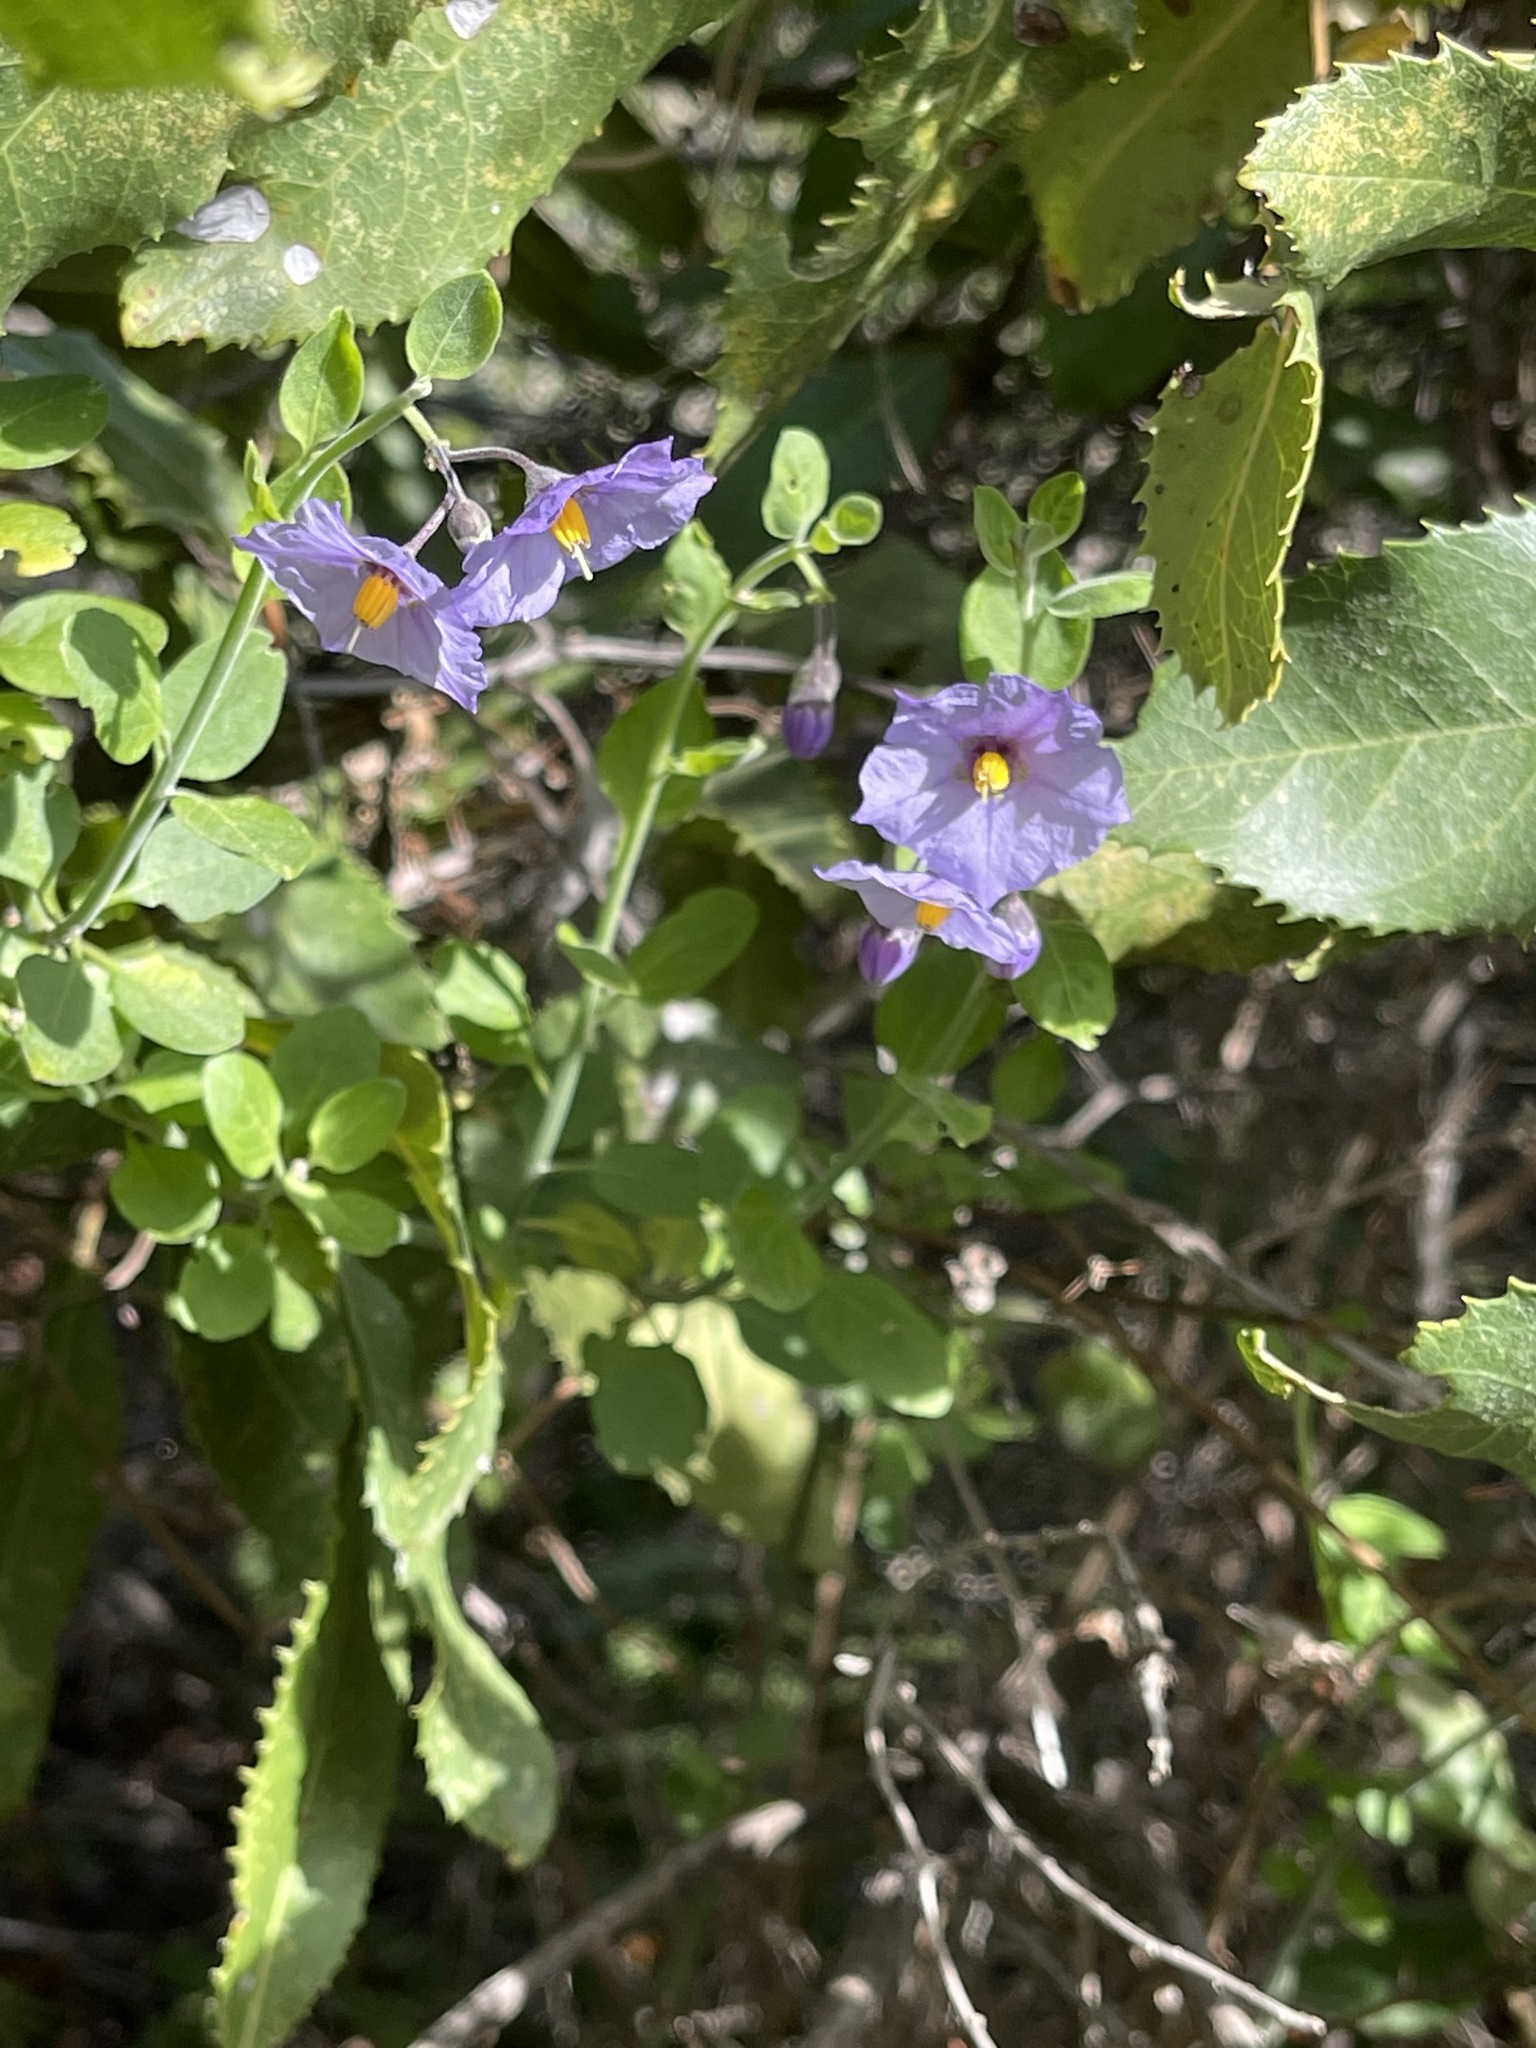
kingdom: Plantae
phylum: Tracheophyta
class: Magnoliopsida
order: Solanales
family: Solanaceae
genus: Solanum
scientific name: Solanum umbelliferum
